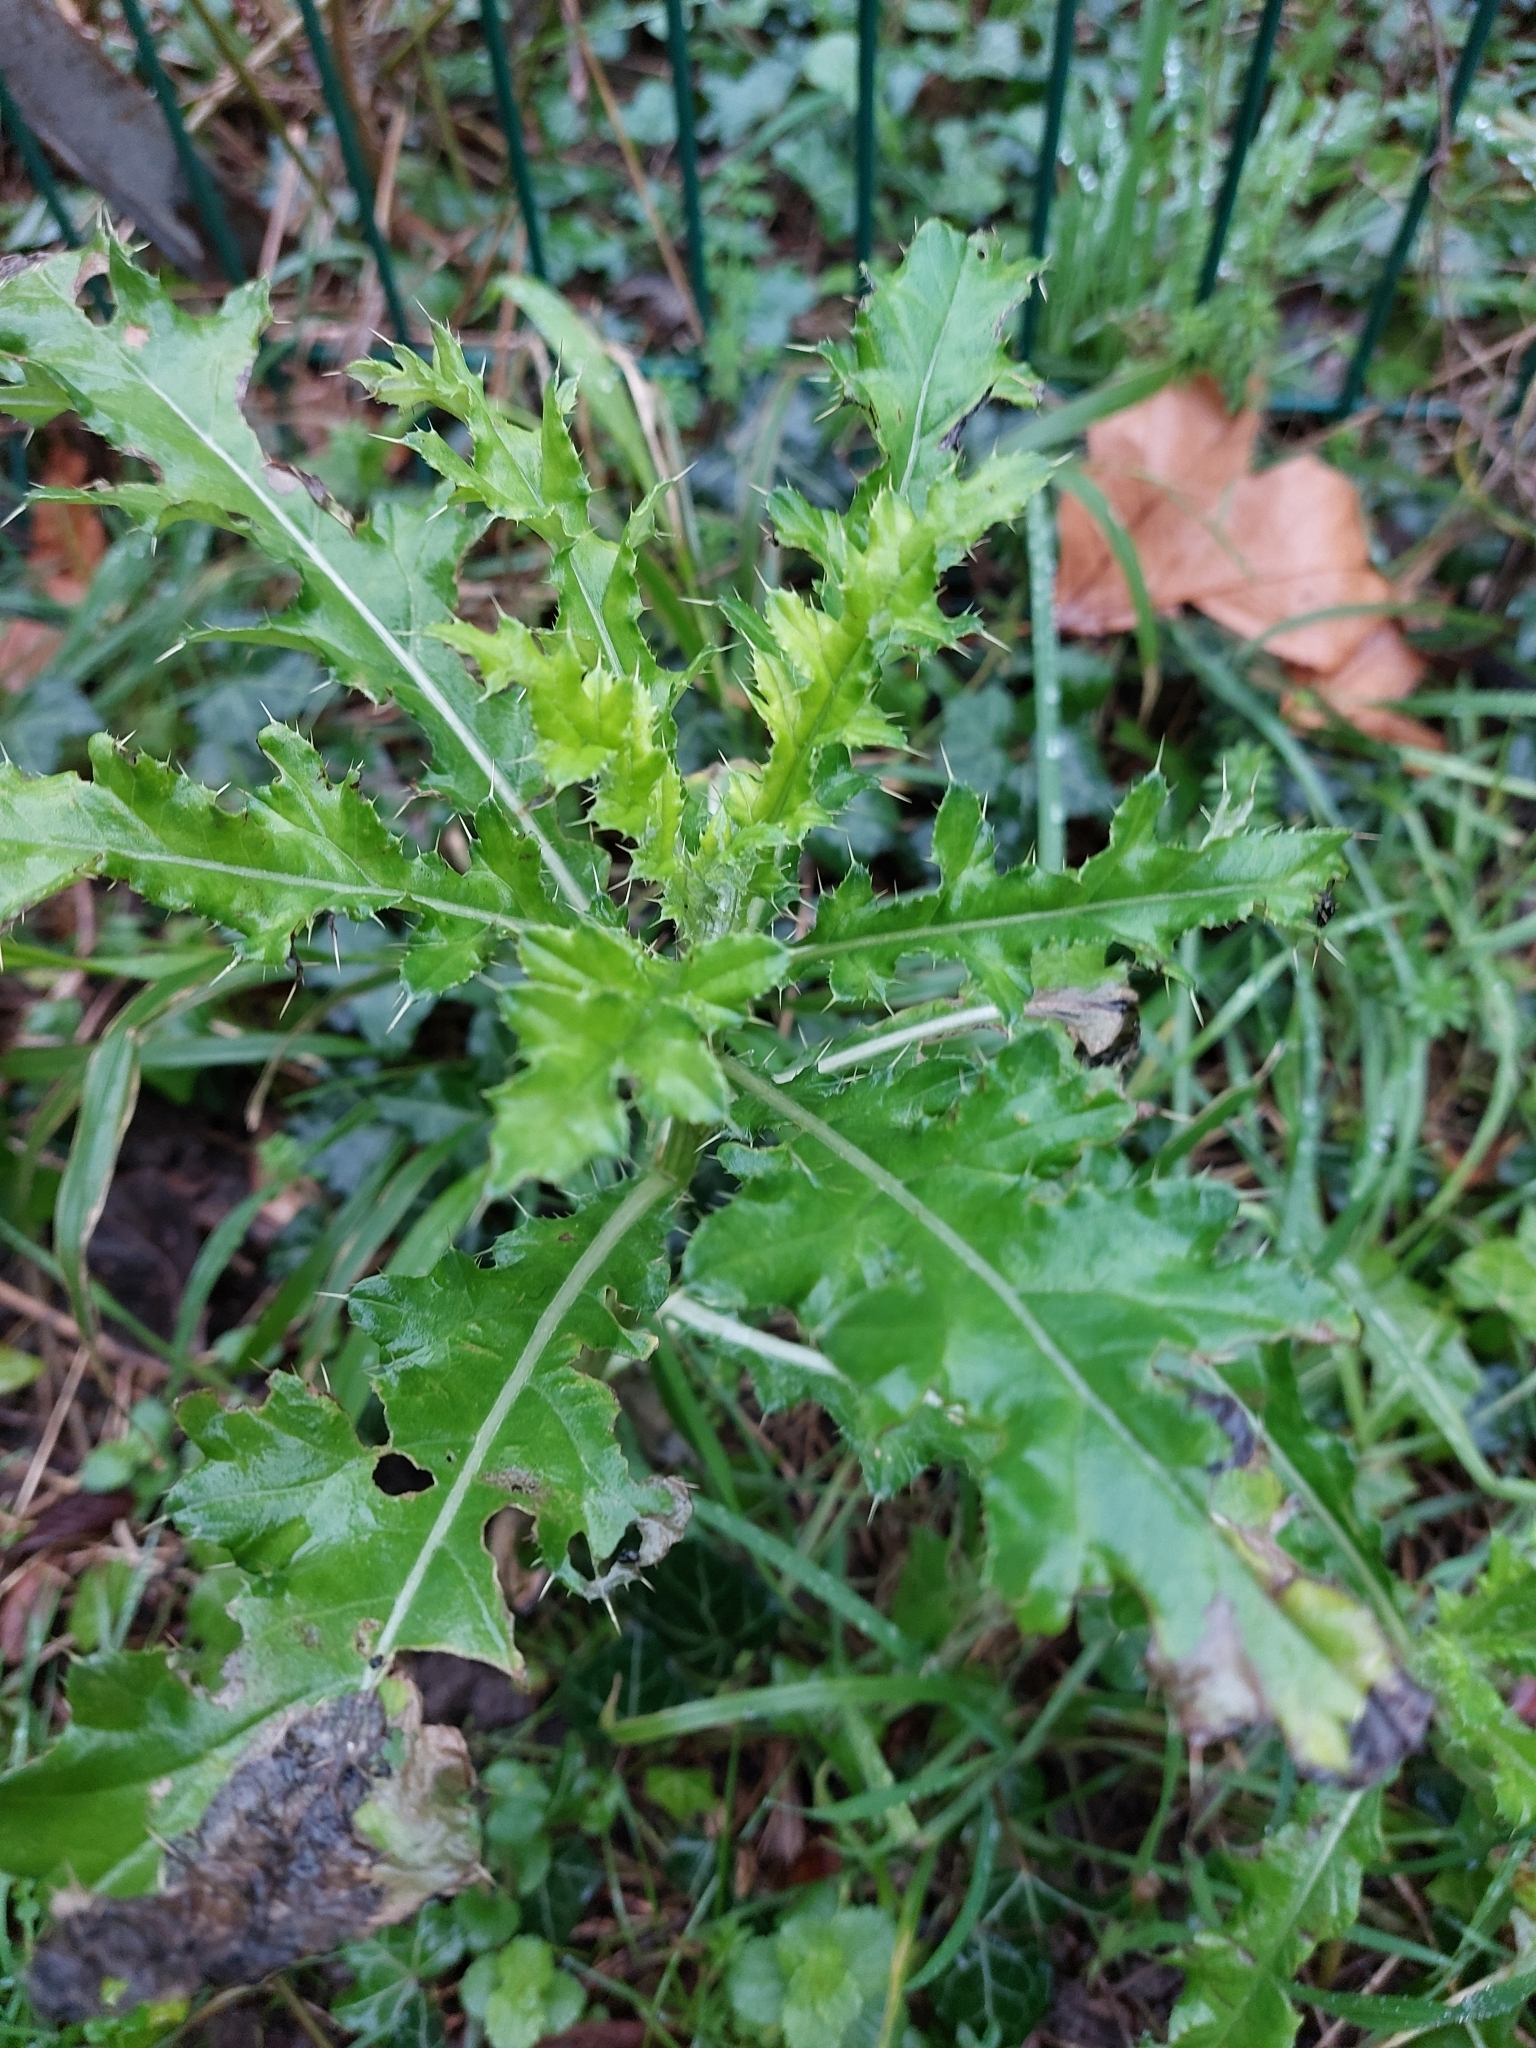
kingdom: Plantae
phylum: Tracheophyta
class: Magnoliopsida
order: Asterales
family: Asteraceae
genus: Cirsium
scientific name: Cirsium arvense
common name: Creeping thistle
